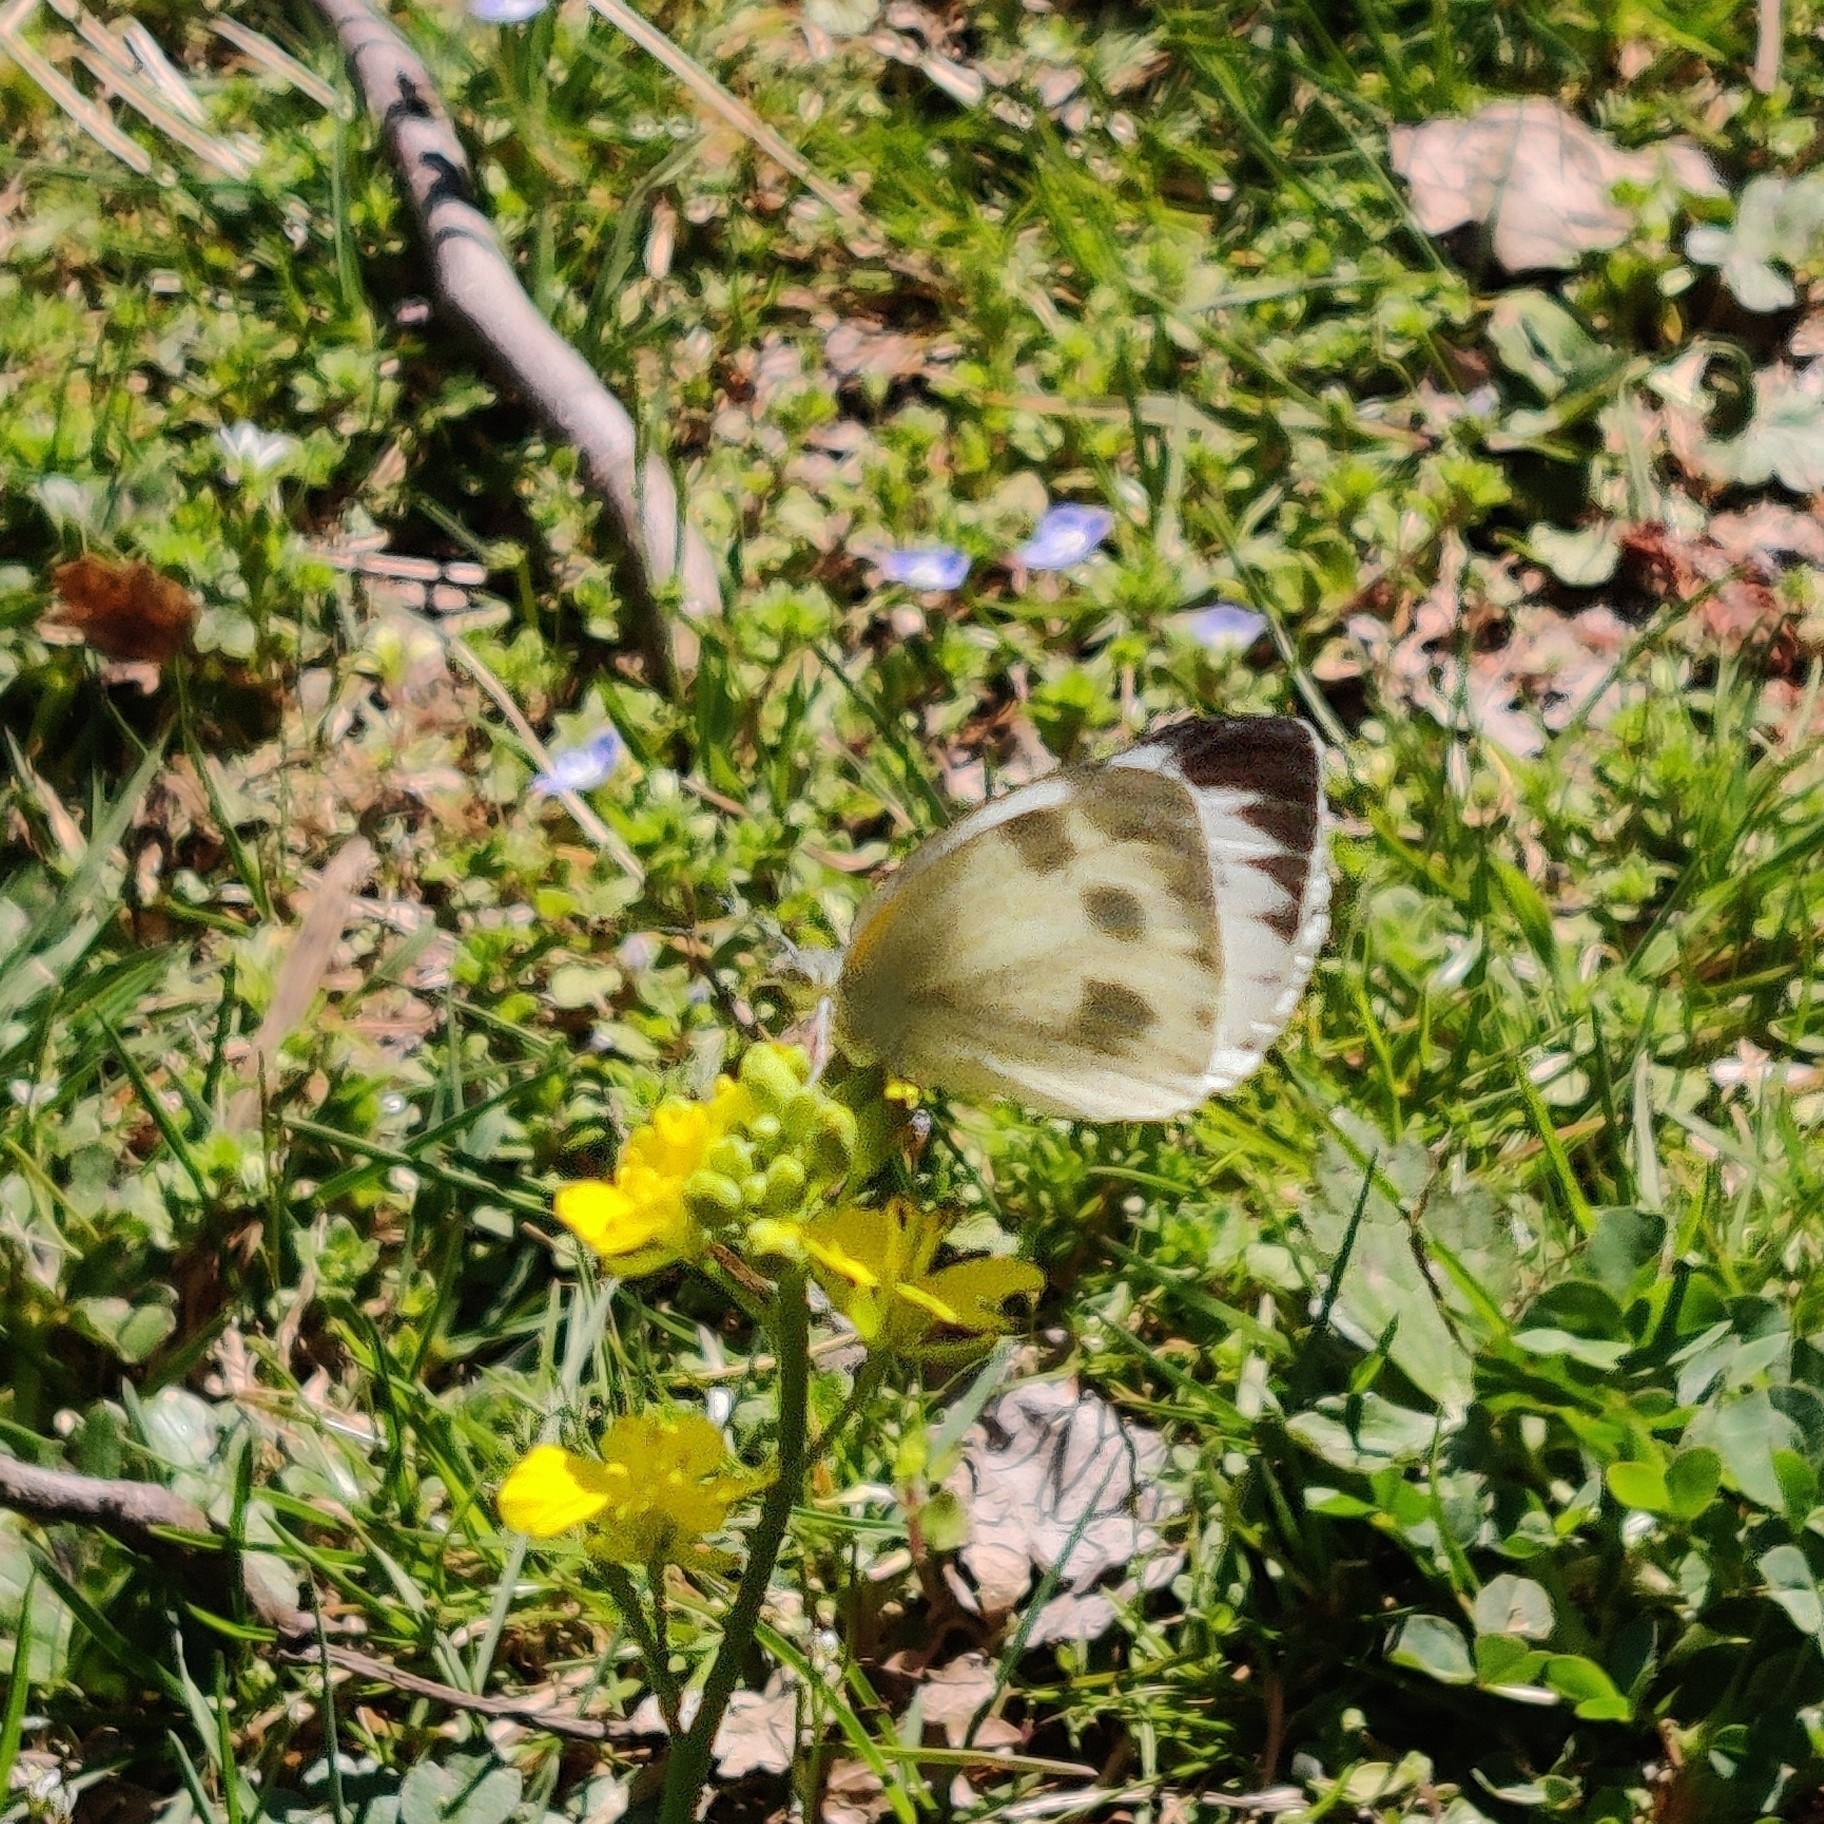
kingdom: Animalia
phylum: Arthropoda
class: Insecta
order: Lepidoptera
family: Pieridae
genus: Pieris
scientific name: Pieris canidia
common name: Indian cabbage white
